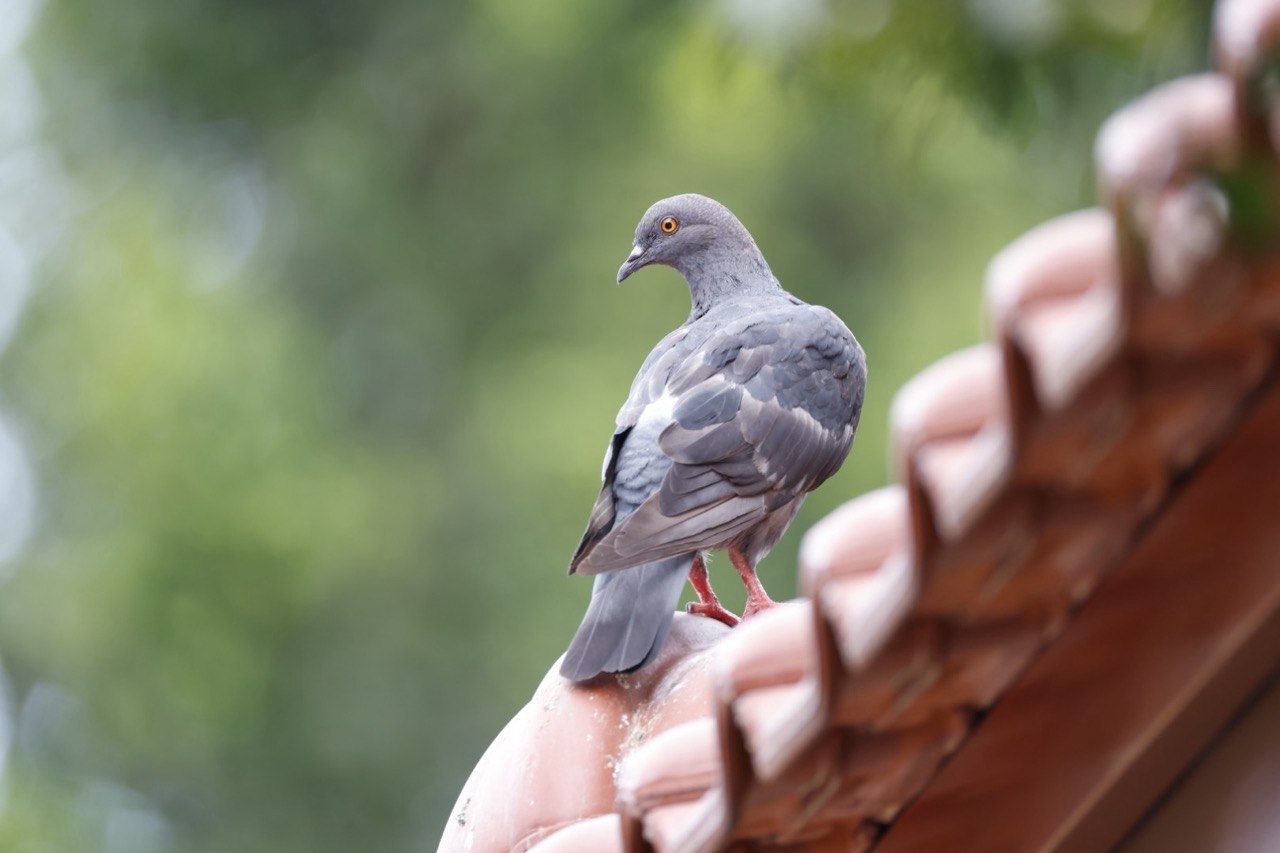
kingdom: Animalia
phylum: Chordata
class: Aves
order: Columbiformes
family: Columbidae
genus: Columba
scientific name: Columba livia
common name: Rock pigeon
